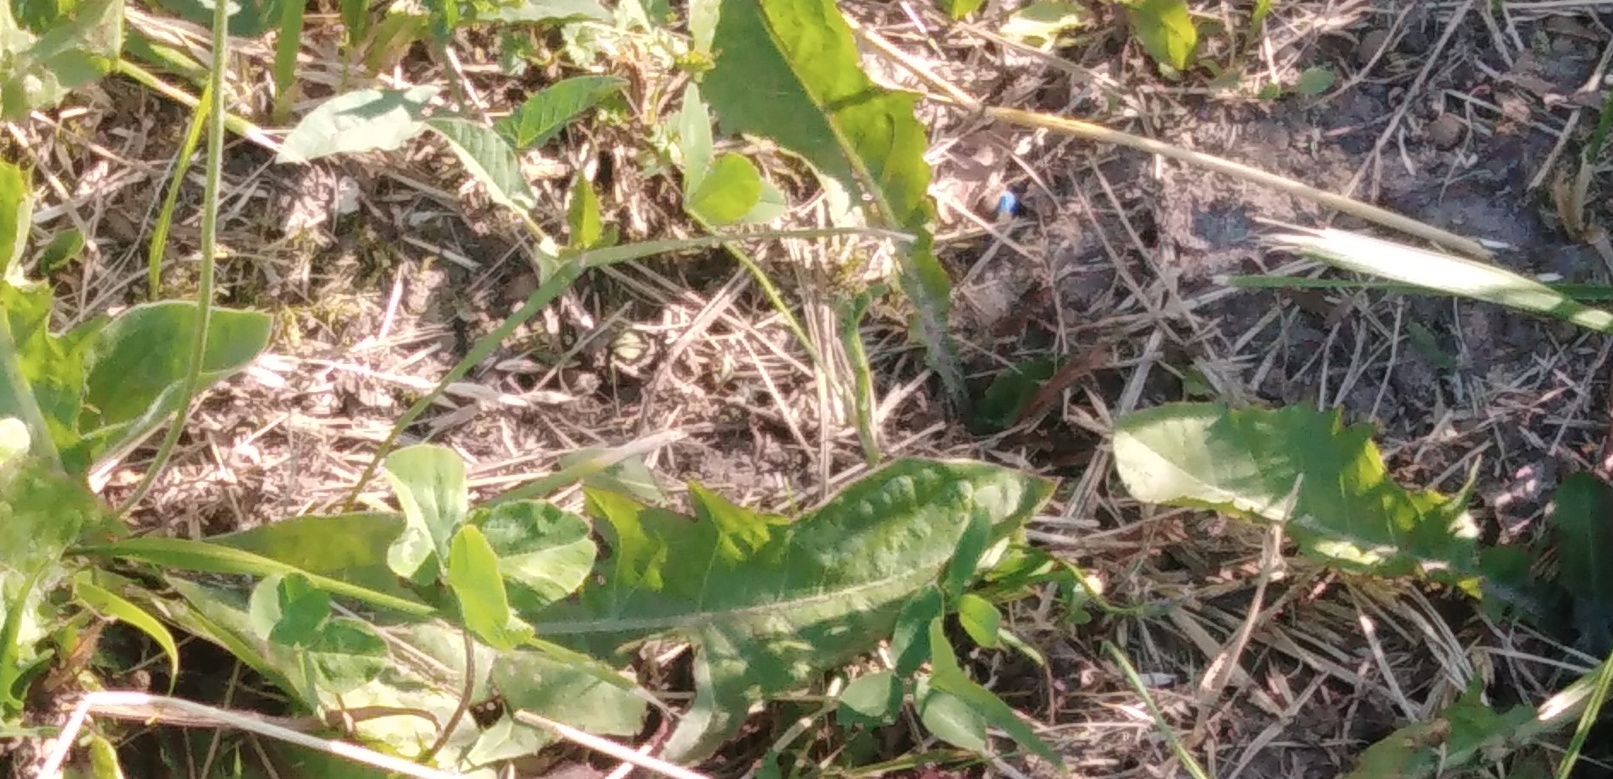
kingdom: Plantae
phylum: Tracheophyta
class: Magnoliopsida
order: Asterales
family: Asteraceae
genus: Taraxacum
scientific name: Taraxacum officinale
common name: Common dandelion
